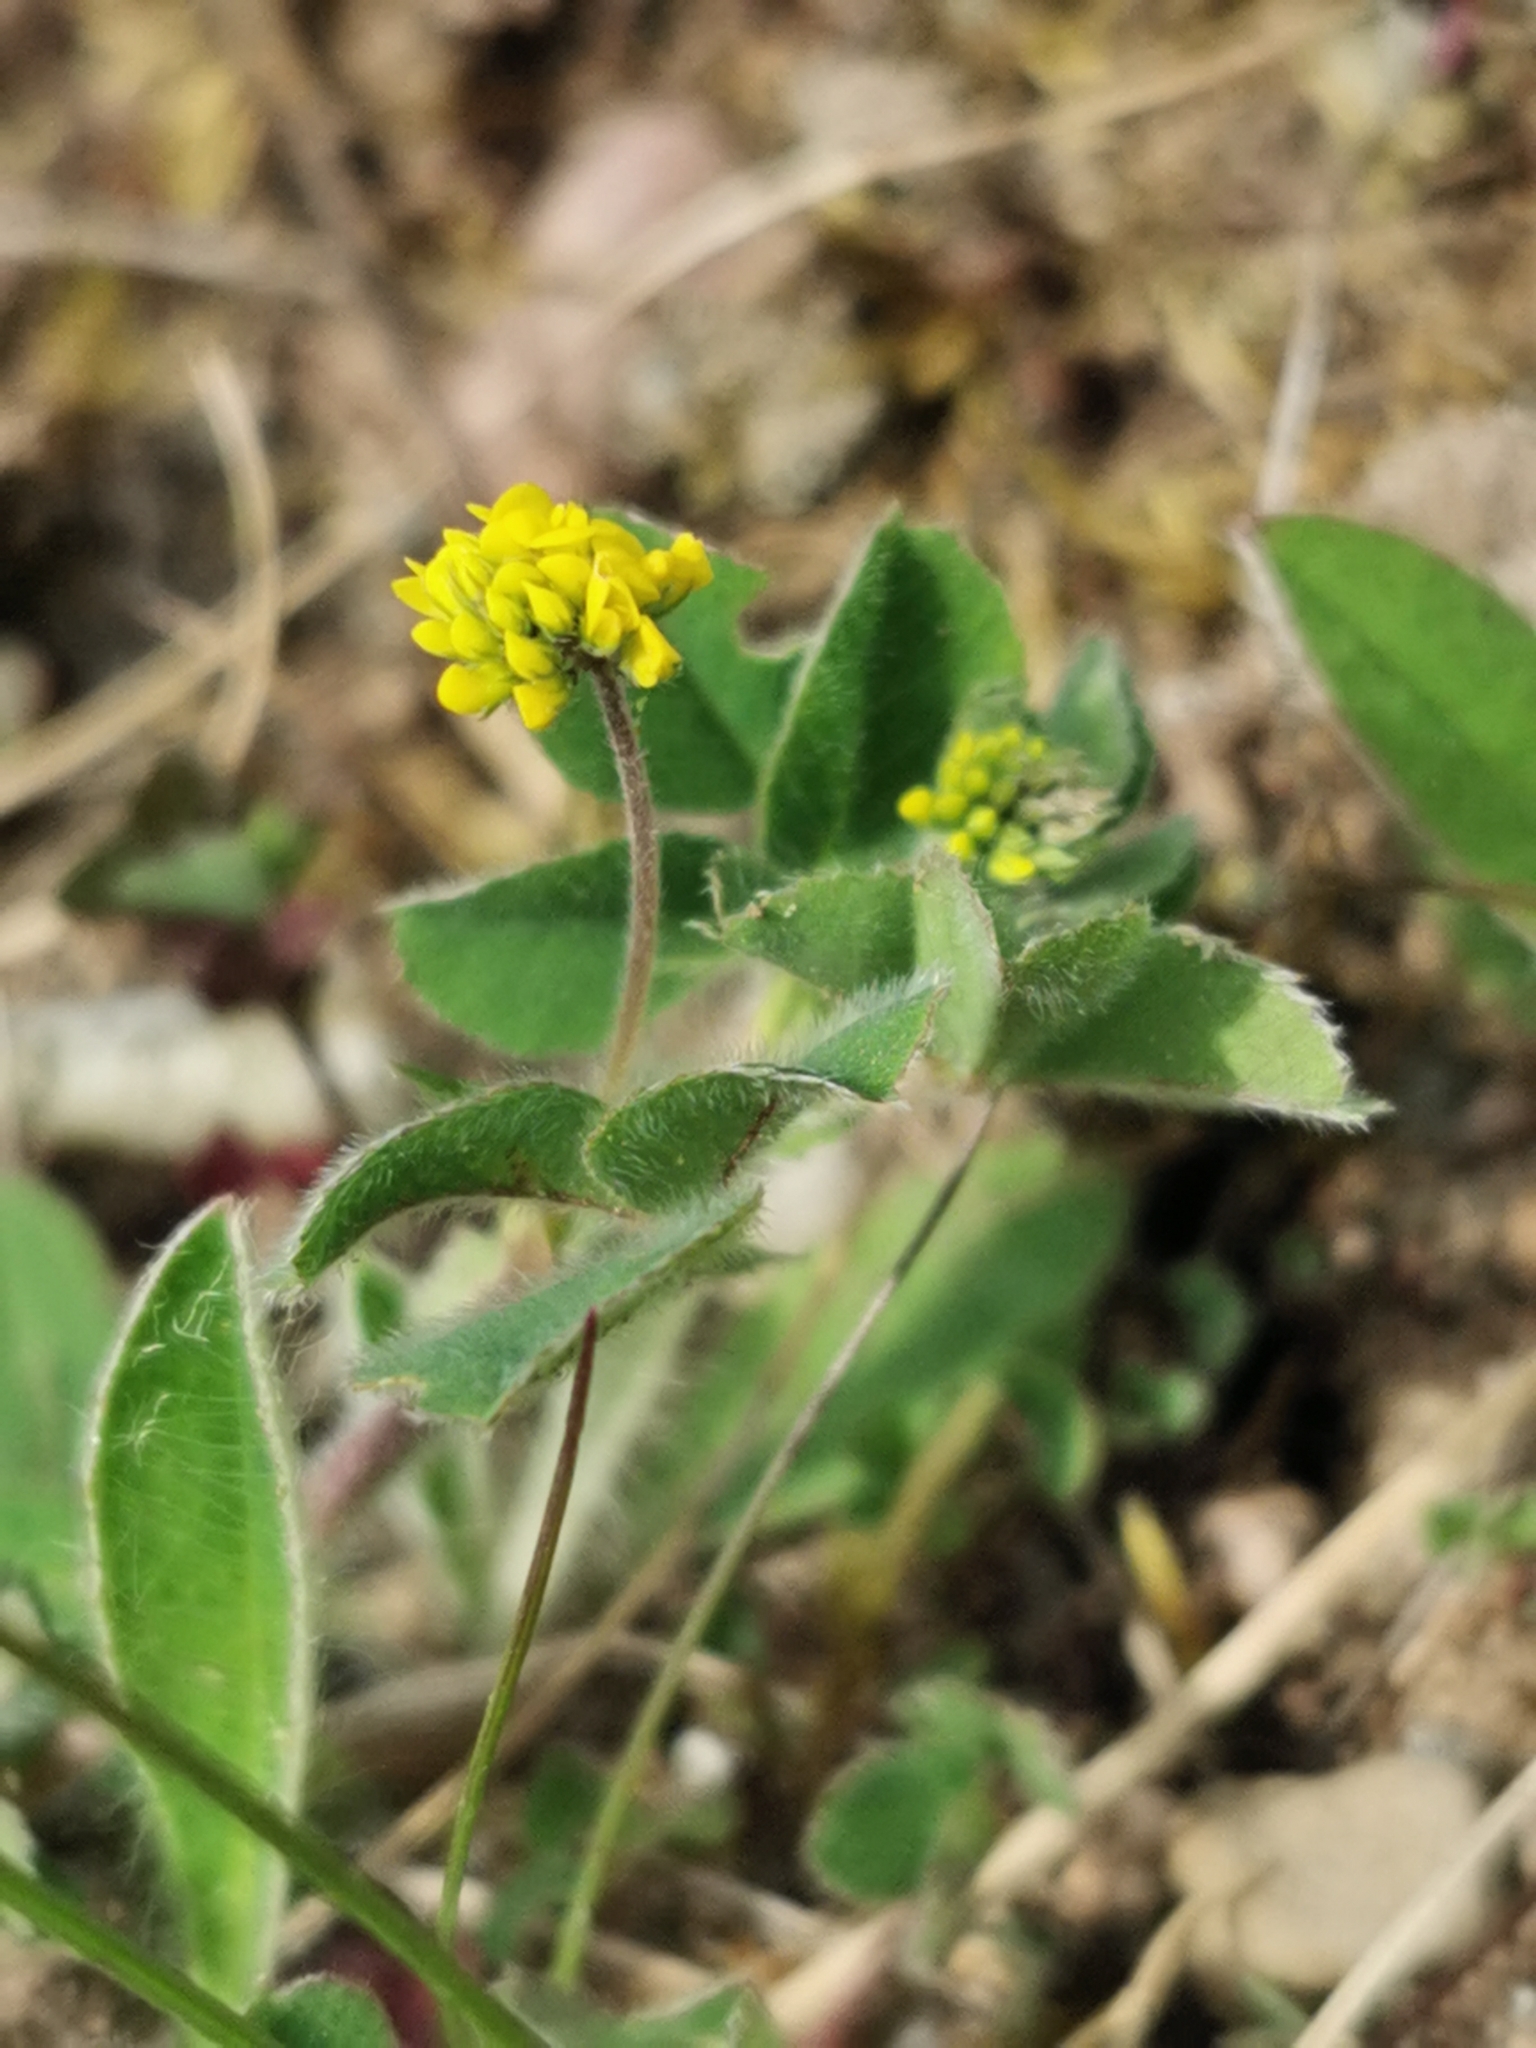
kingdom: Plantae
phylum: Tracheophyta
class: Magnoliopsida
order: Fabales
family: Fabaceae
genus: Medicago
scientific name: Medicago lupulina
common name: Black medick
